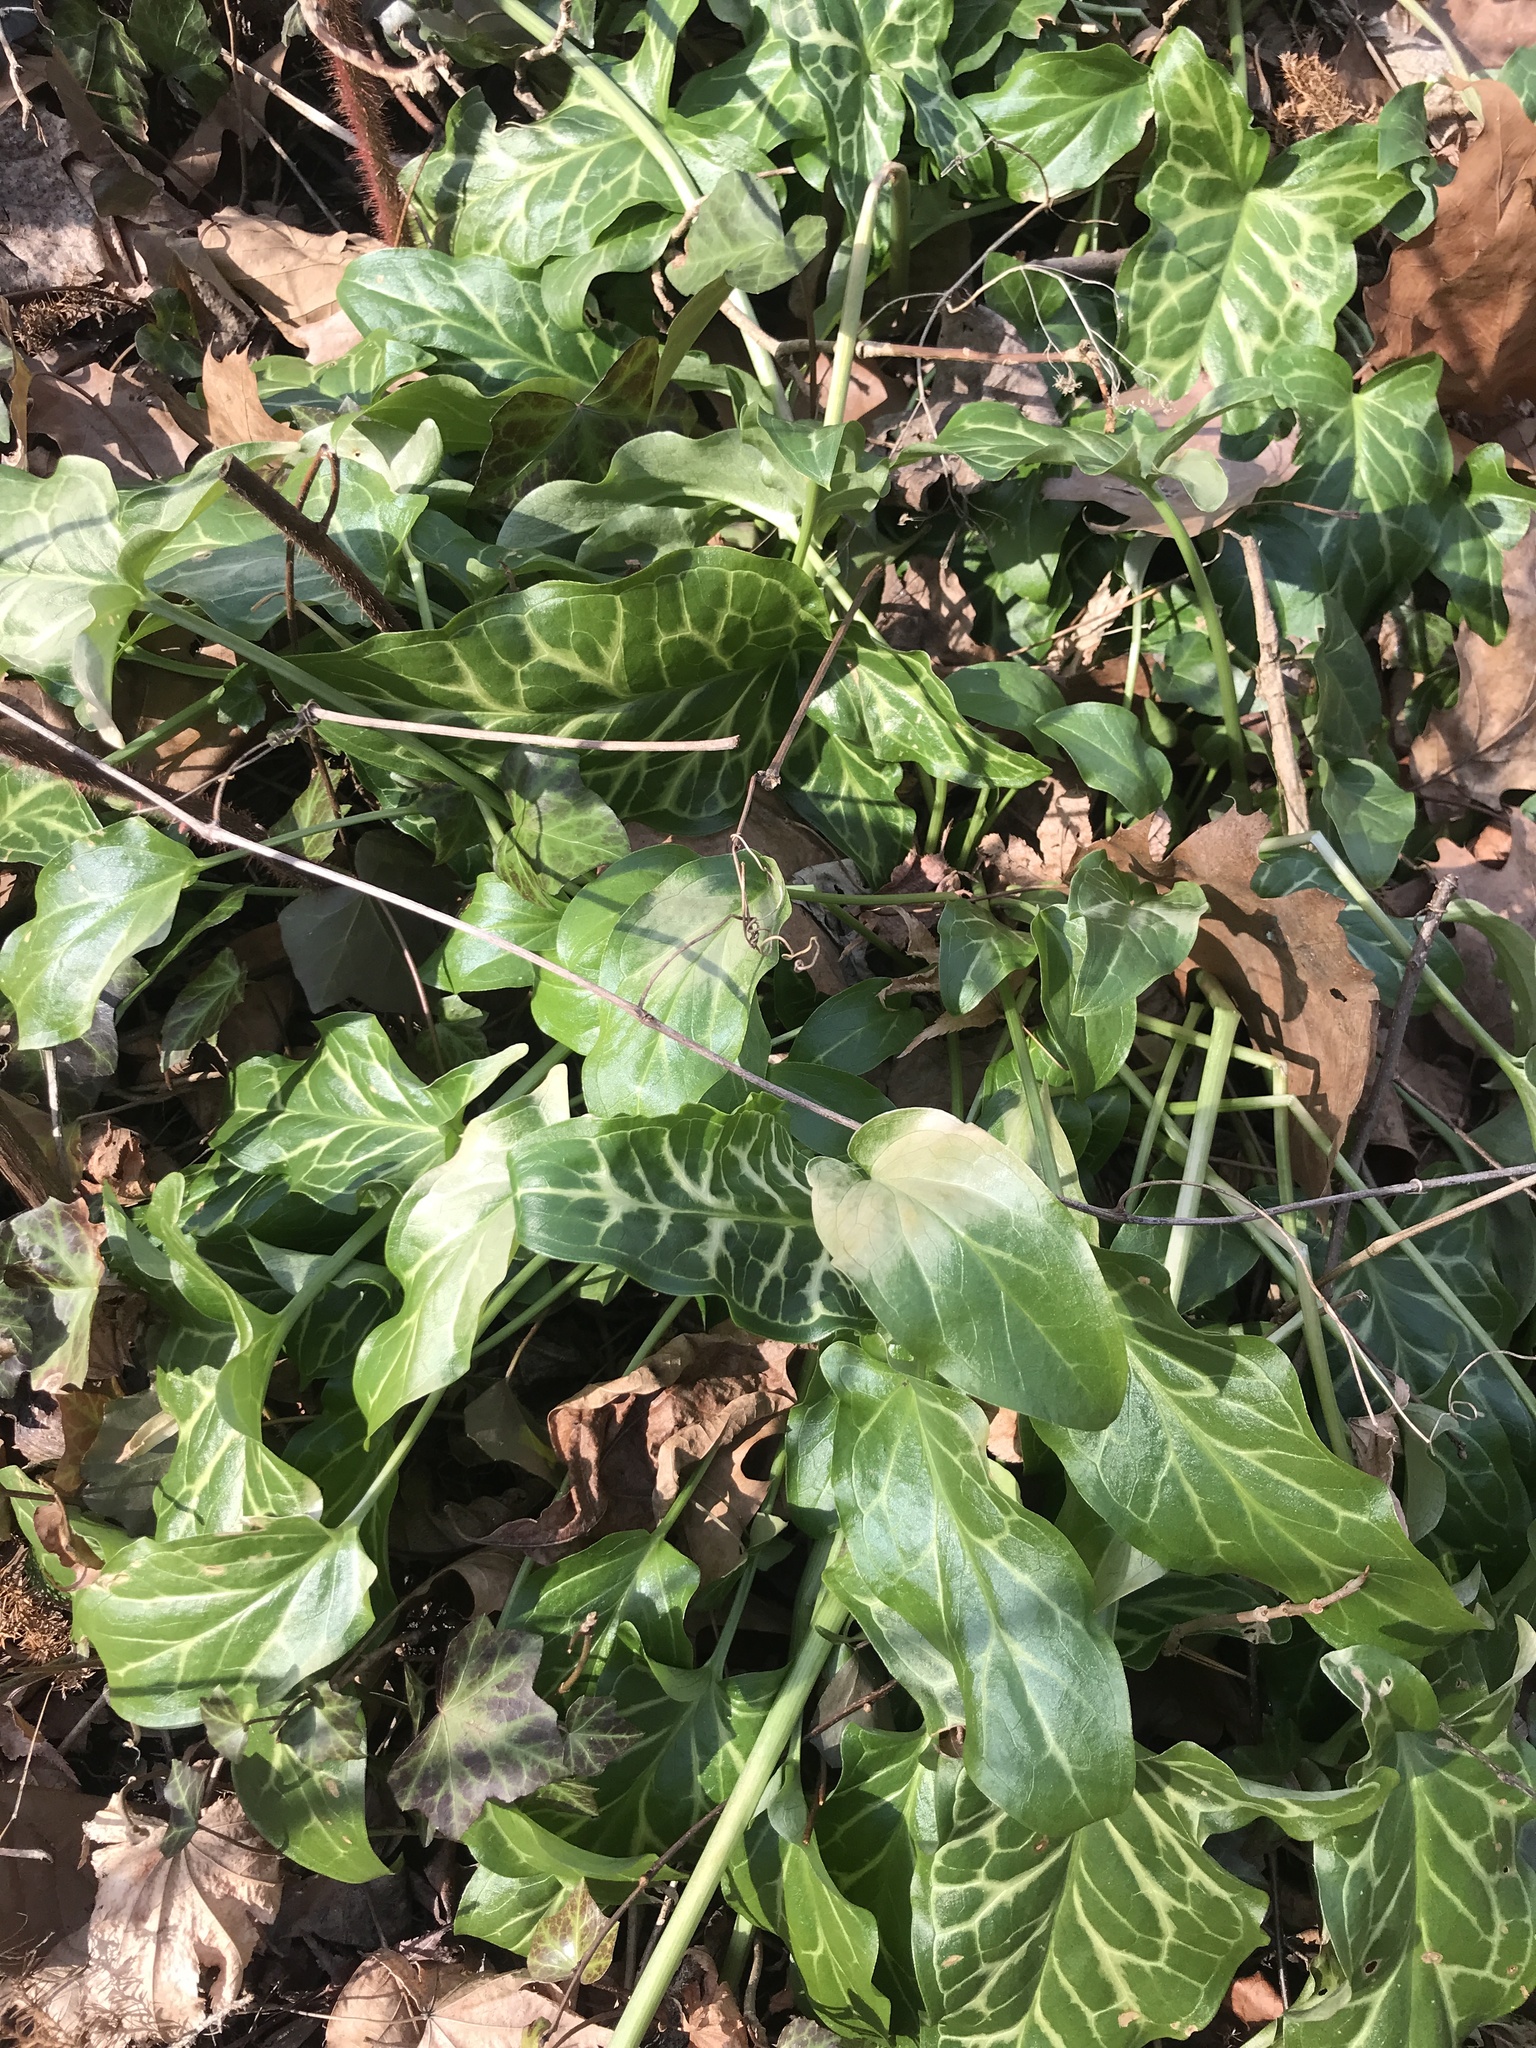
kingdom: Plantae
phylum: Tracheophyta
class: Liliopsida
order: Alismatales
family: Araceae
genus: Arum
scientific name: Arum italicum
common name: Italian lords-and-ladies
